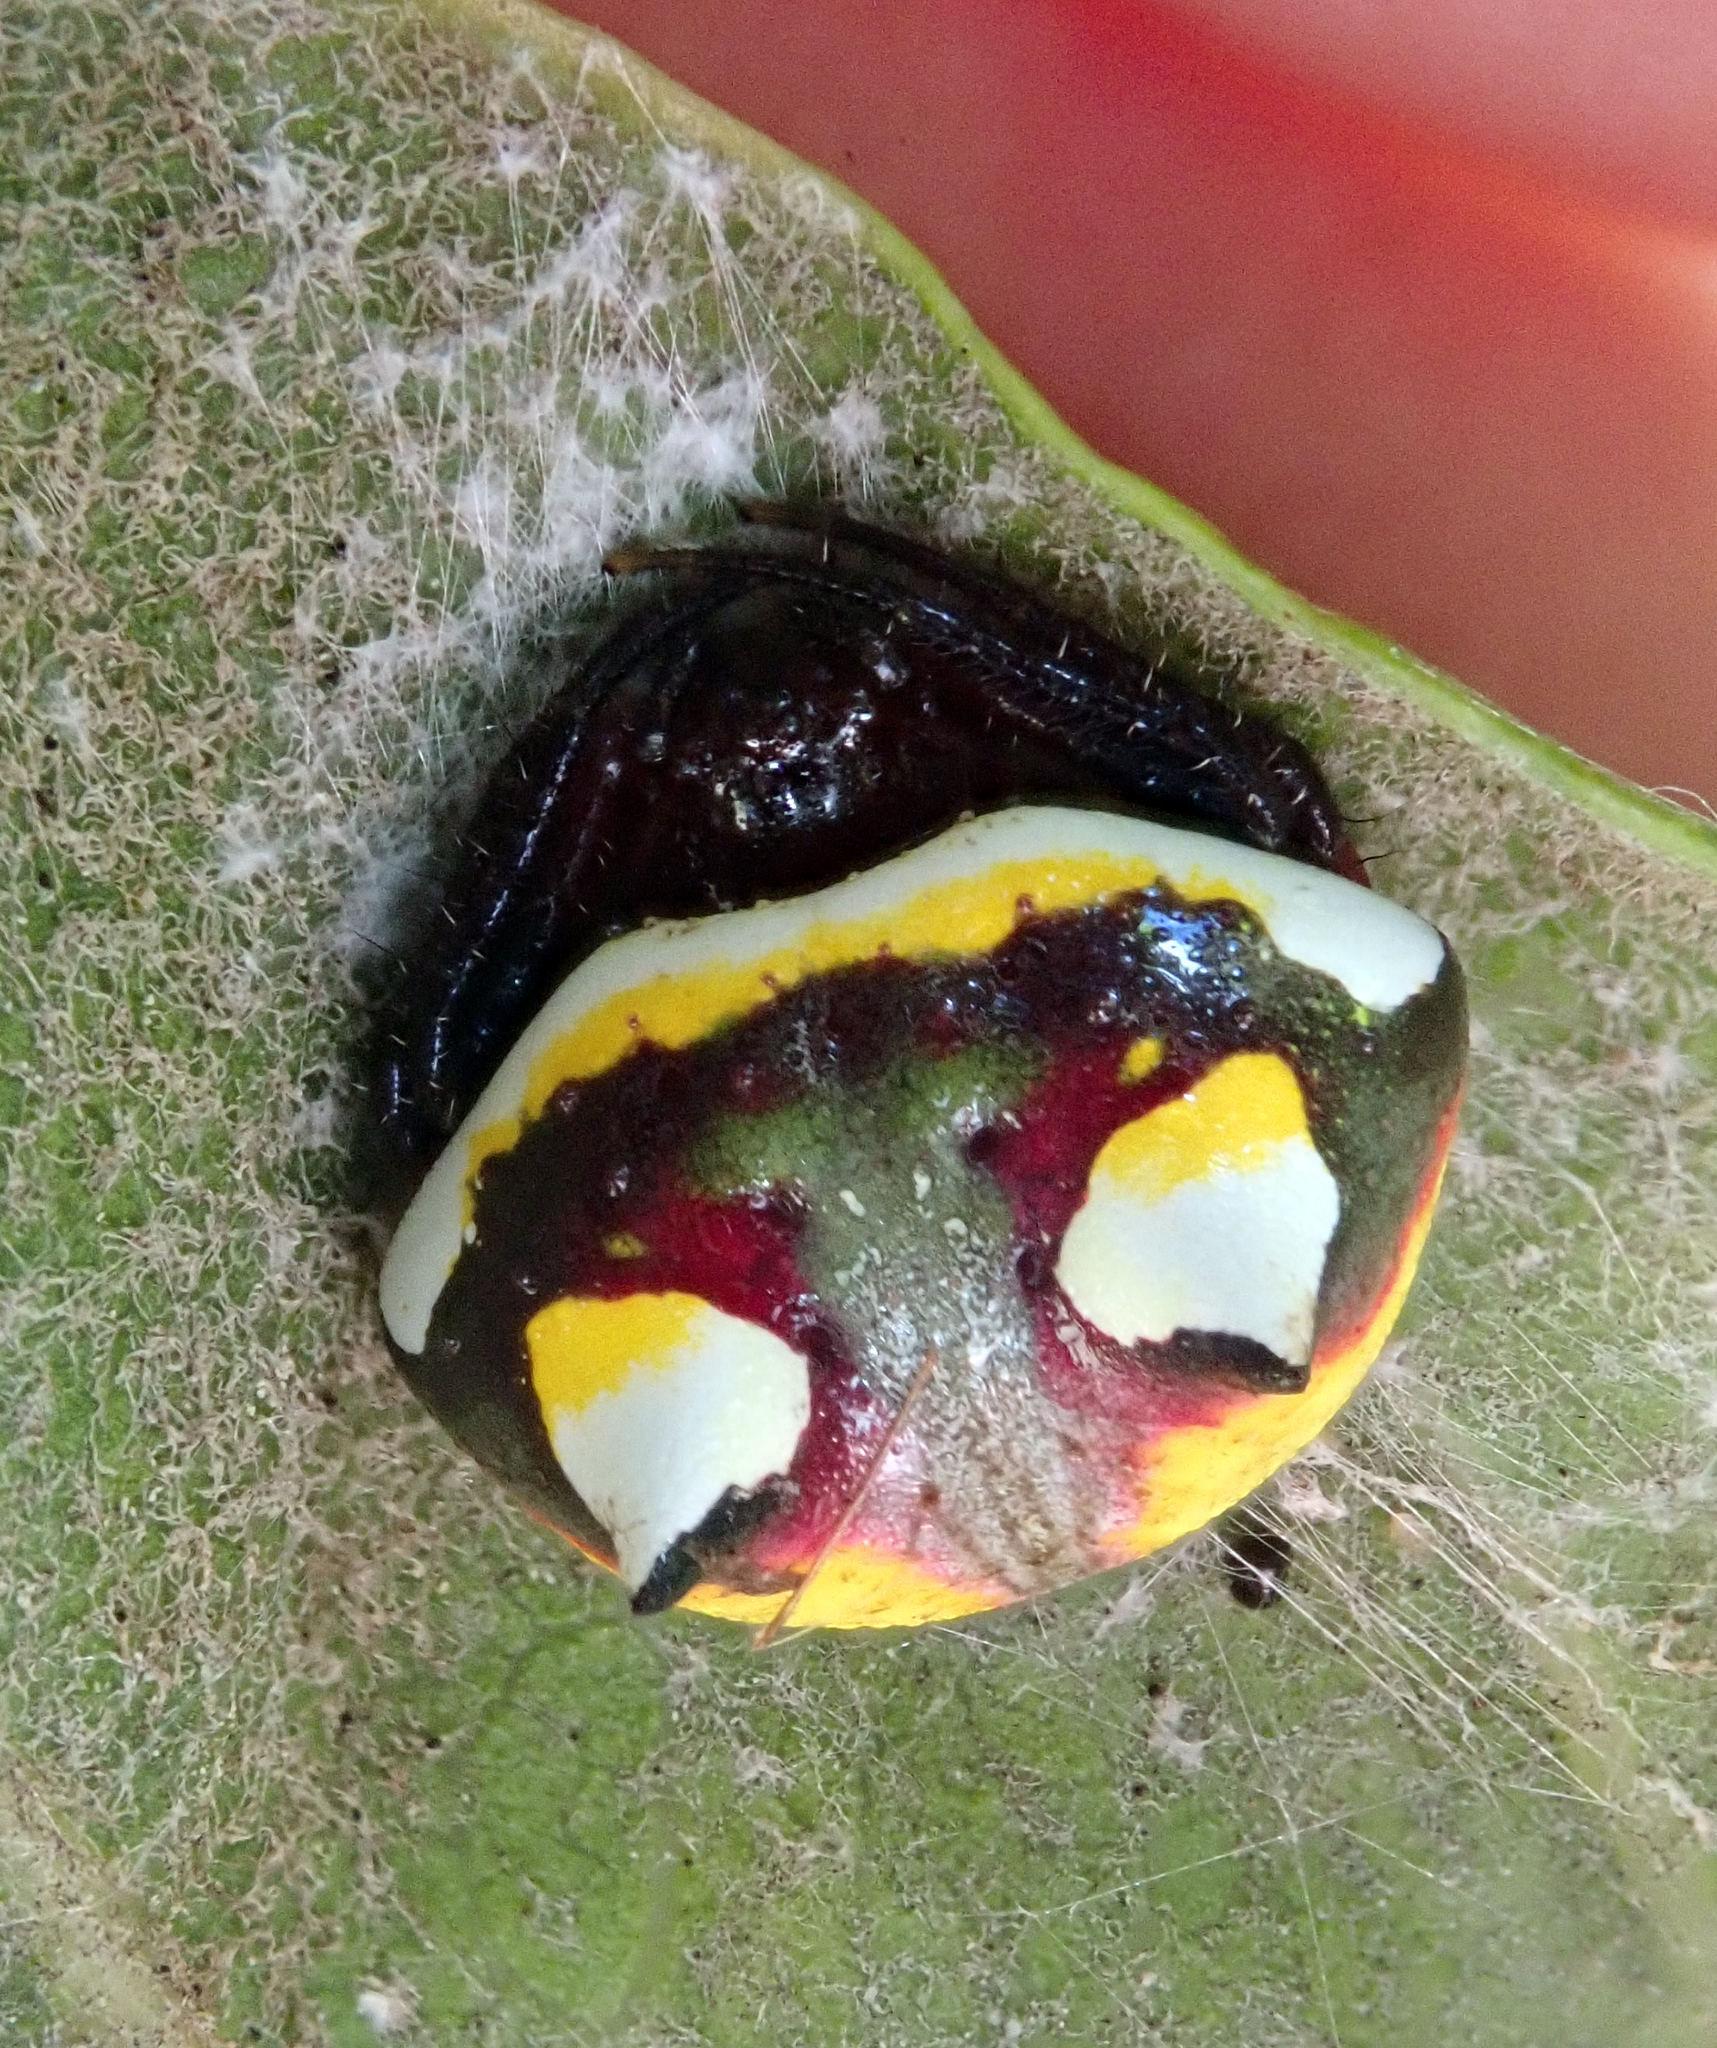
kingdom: Animalia
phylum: Arthropoda
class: Arachnida
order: Araneae
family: Araneidae
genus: Poecilopachys
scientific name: Poecilopachys australasia
